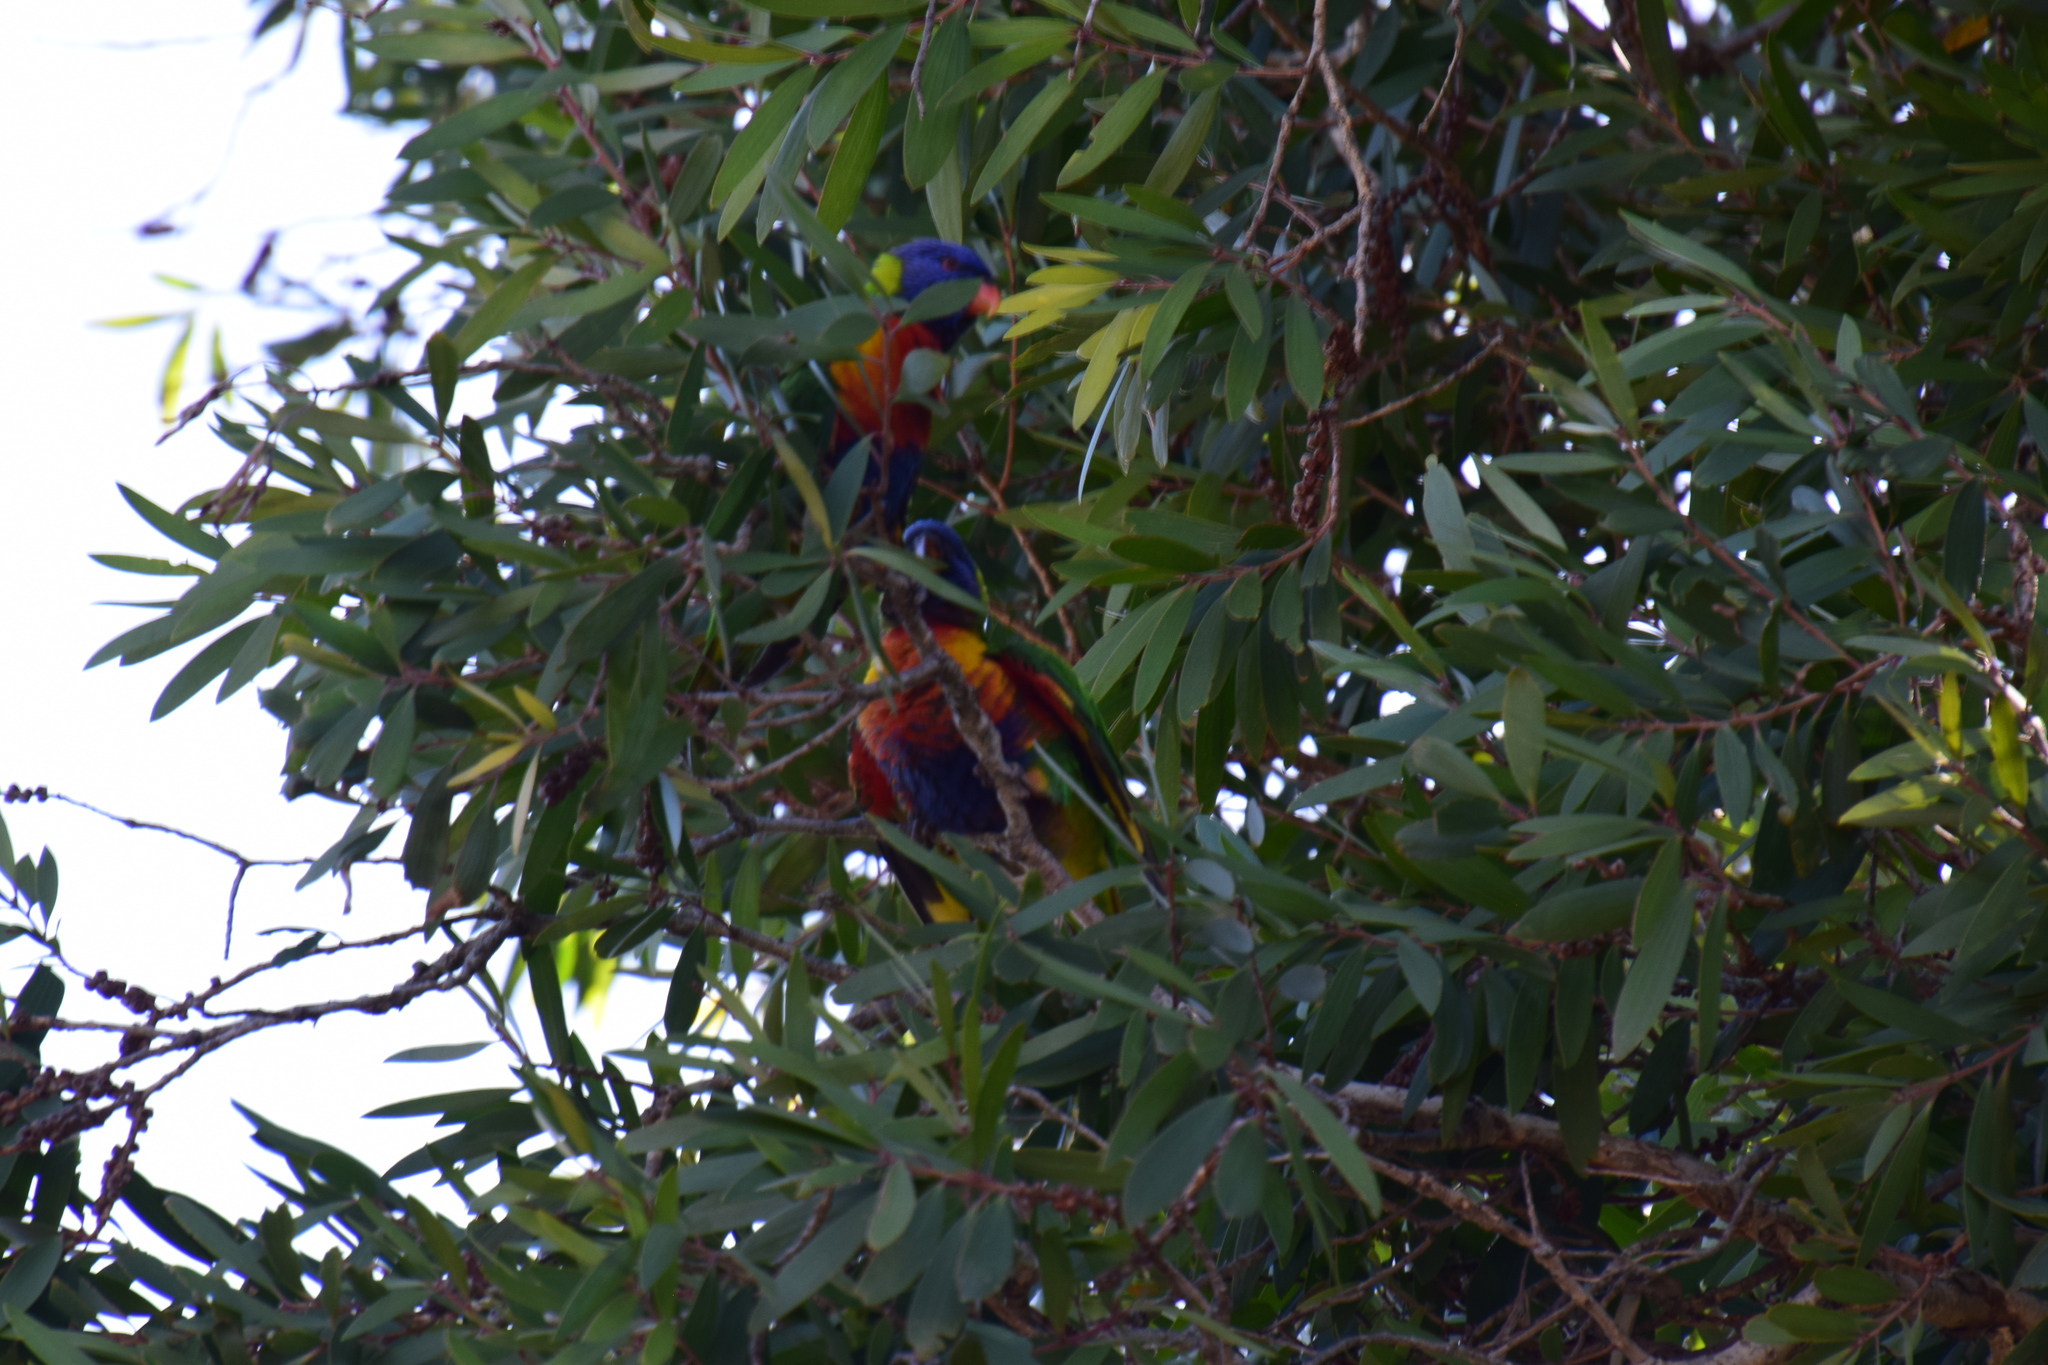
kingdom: Animalia
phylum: Chordata
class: Aves
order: Psittaciformes
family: Psittacidae
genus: Trichoglossus
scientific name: Trichoglossus haematodus
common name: Coconut lorikeet
